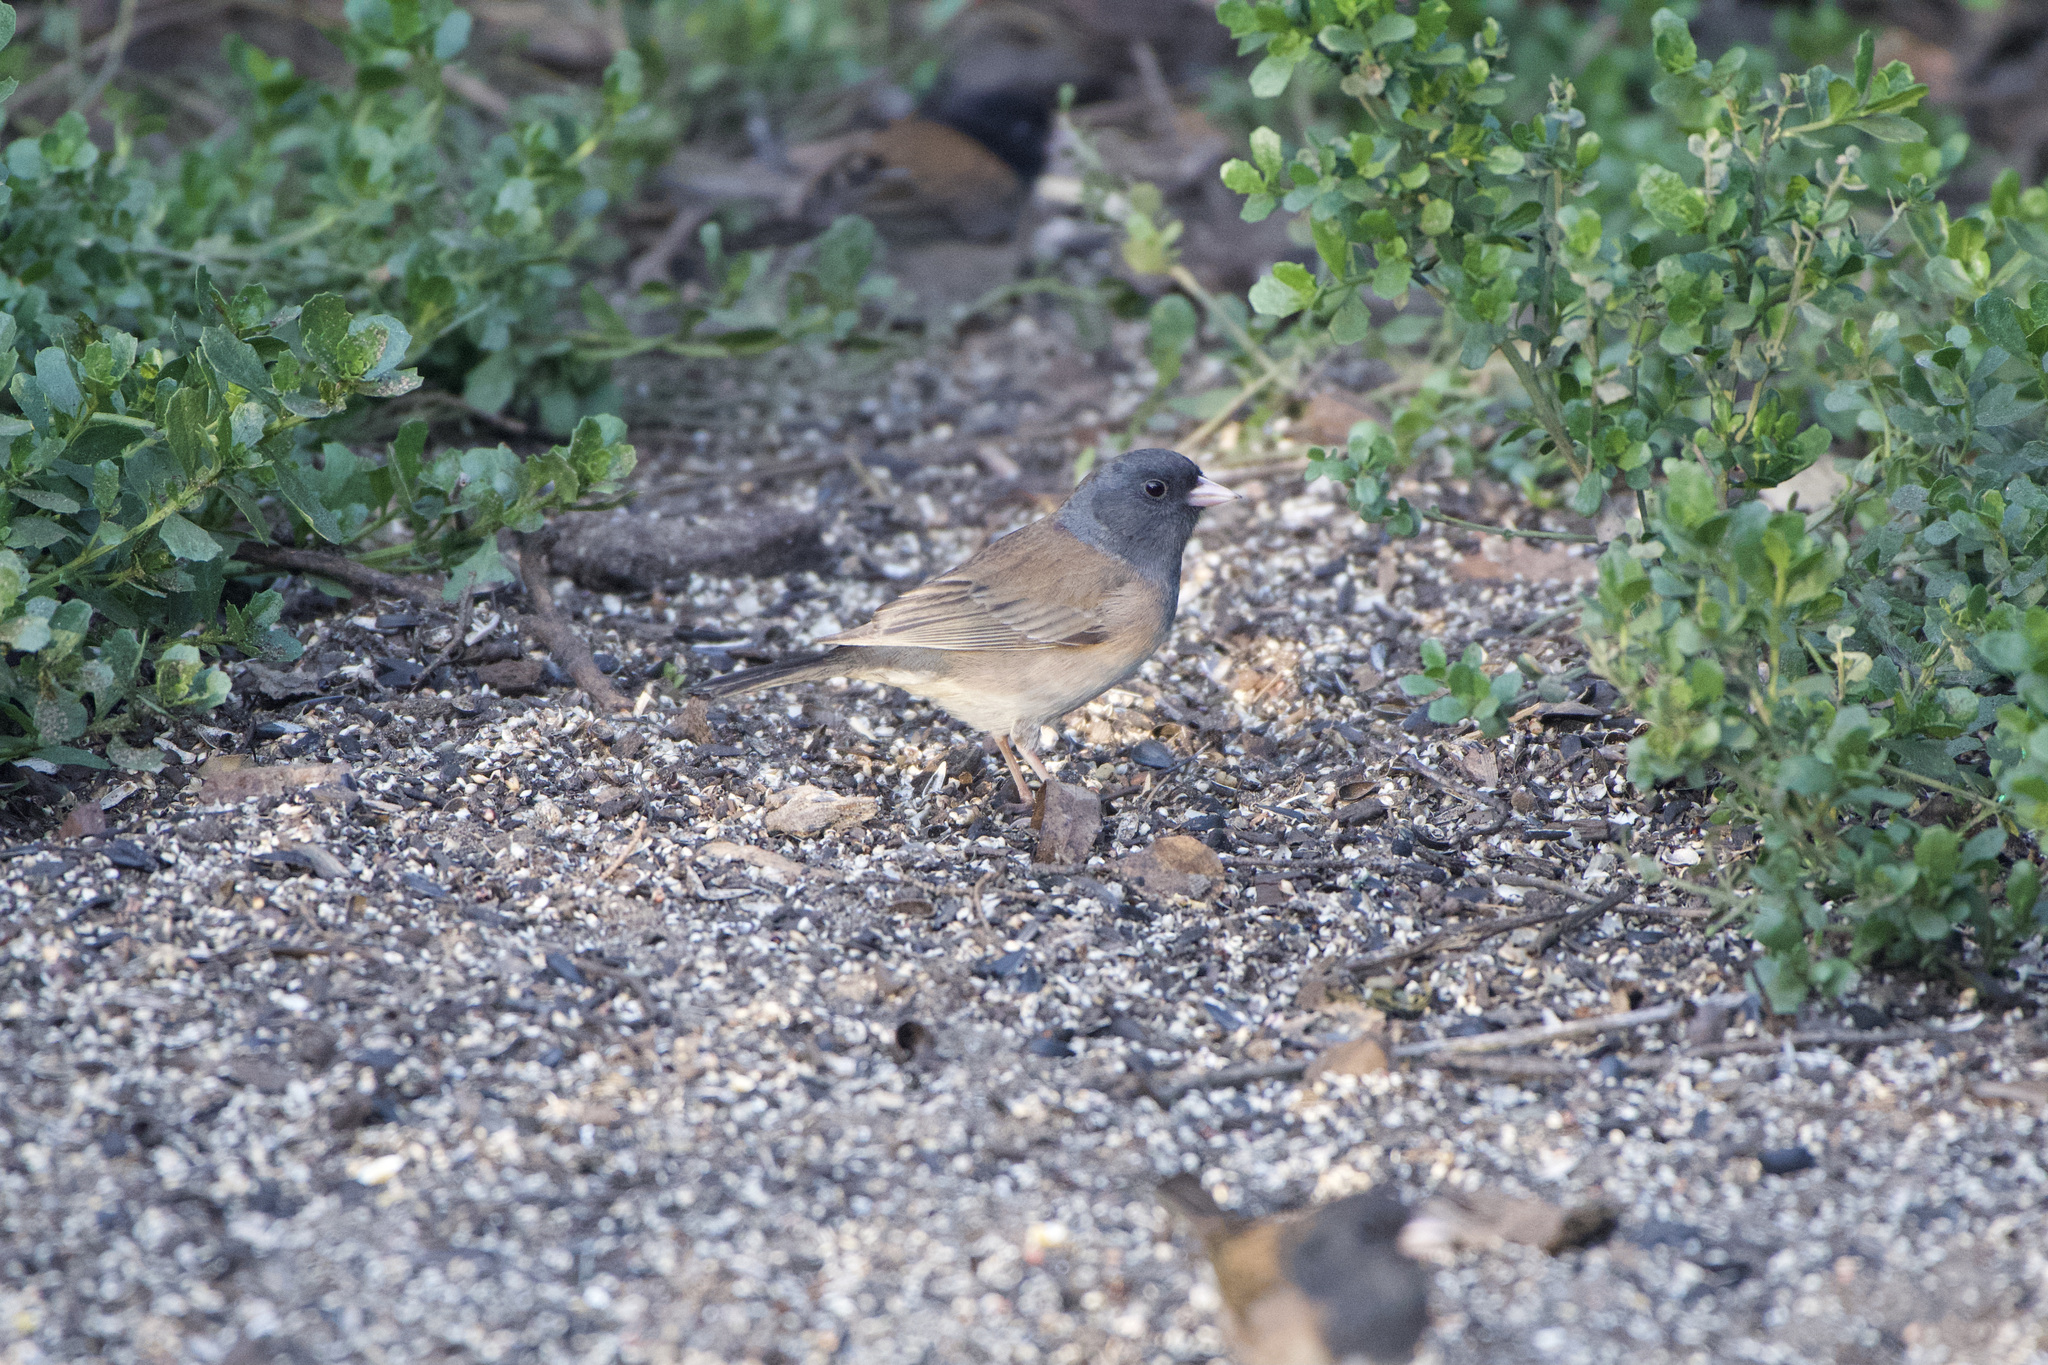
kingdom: Animalia
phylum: Chordata
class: Aves
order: Passeriformes
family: Passerellidae
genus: Junco
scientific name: Junco hyemalis
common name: Dark-eyed junco
